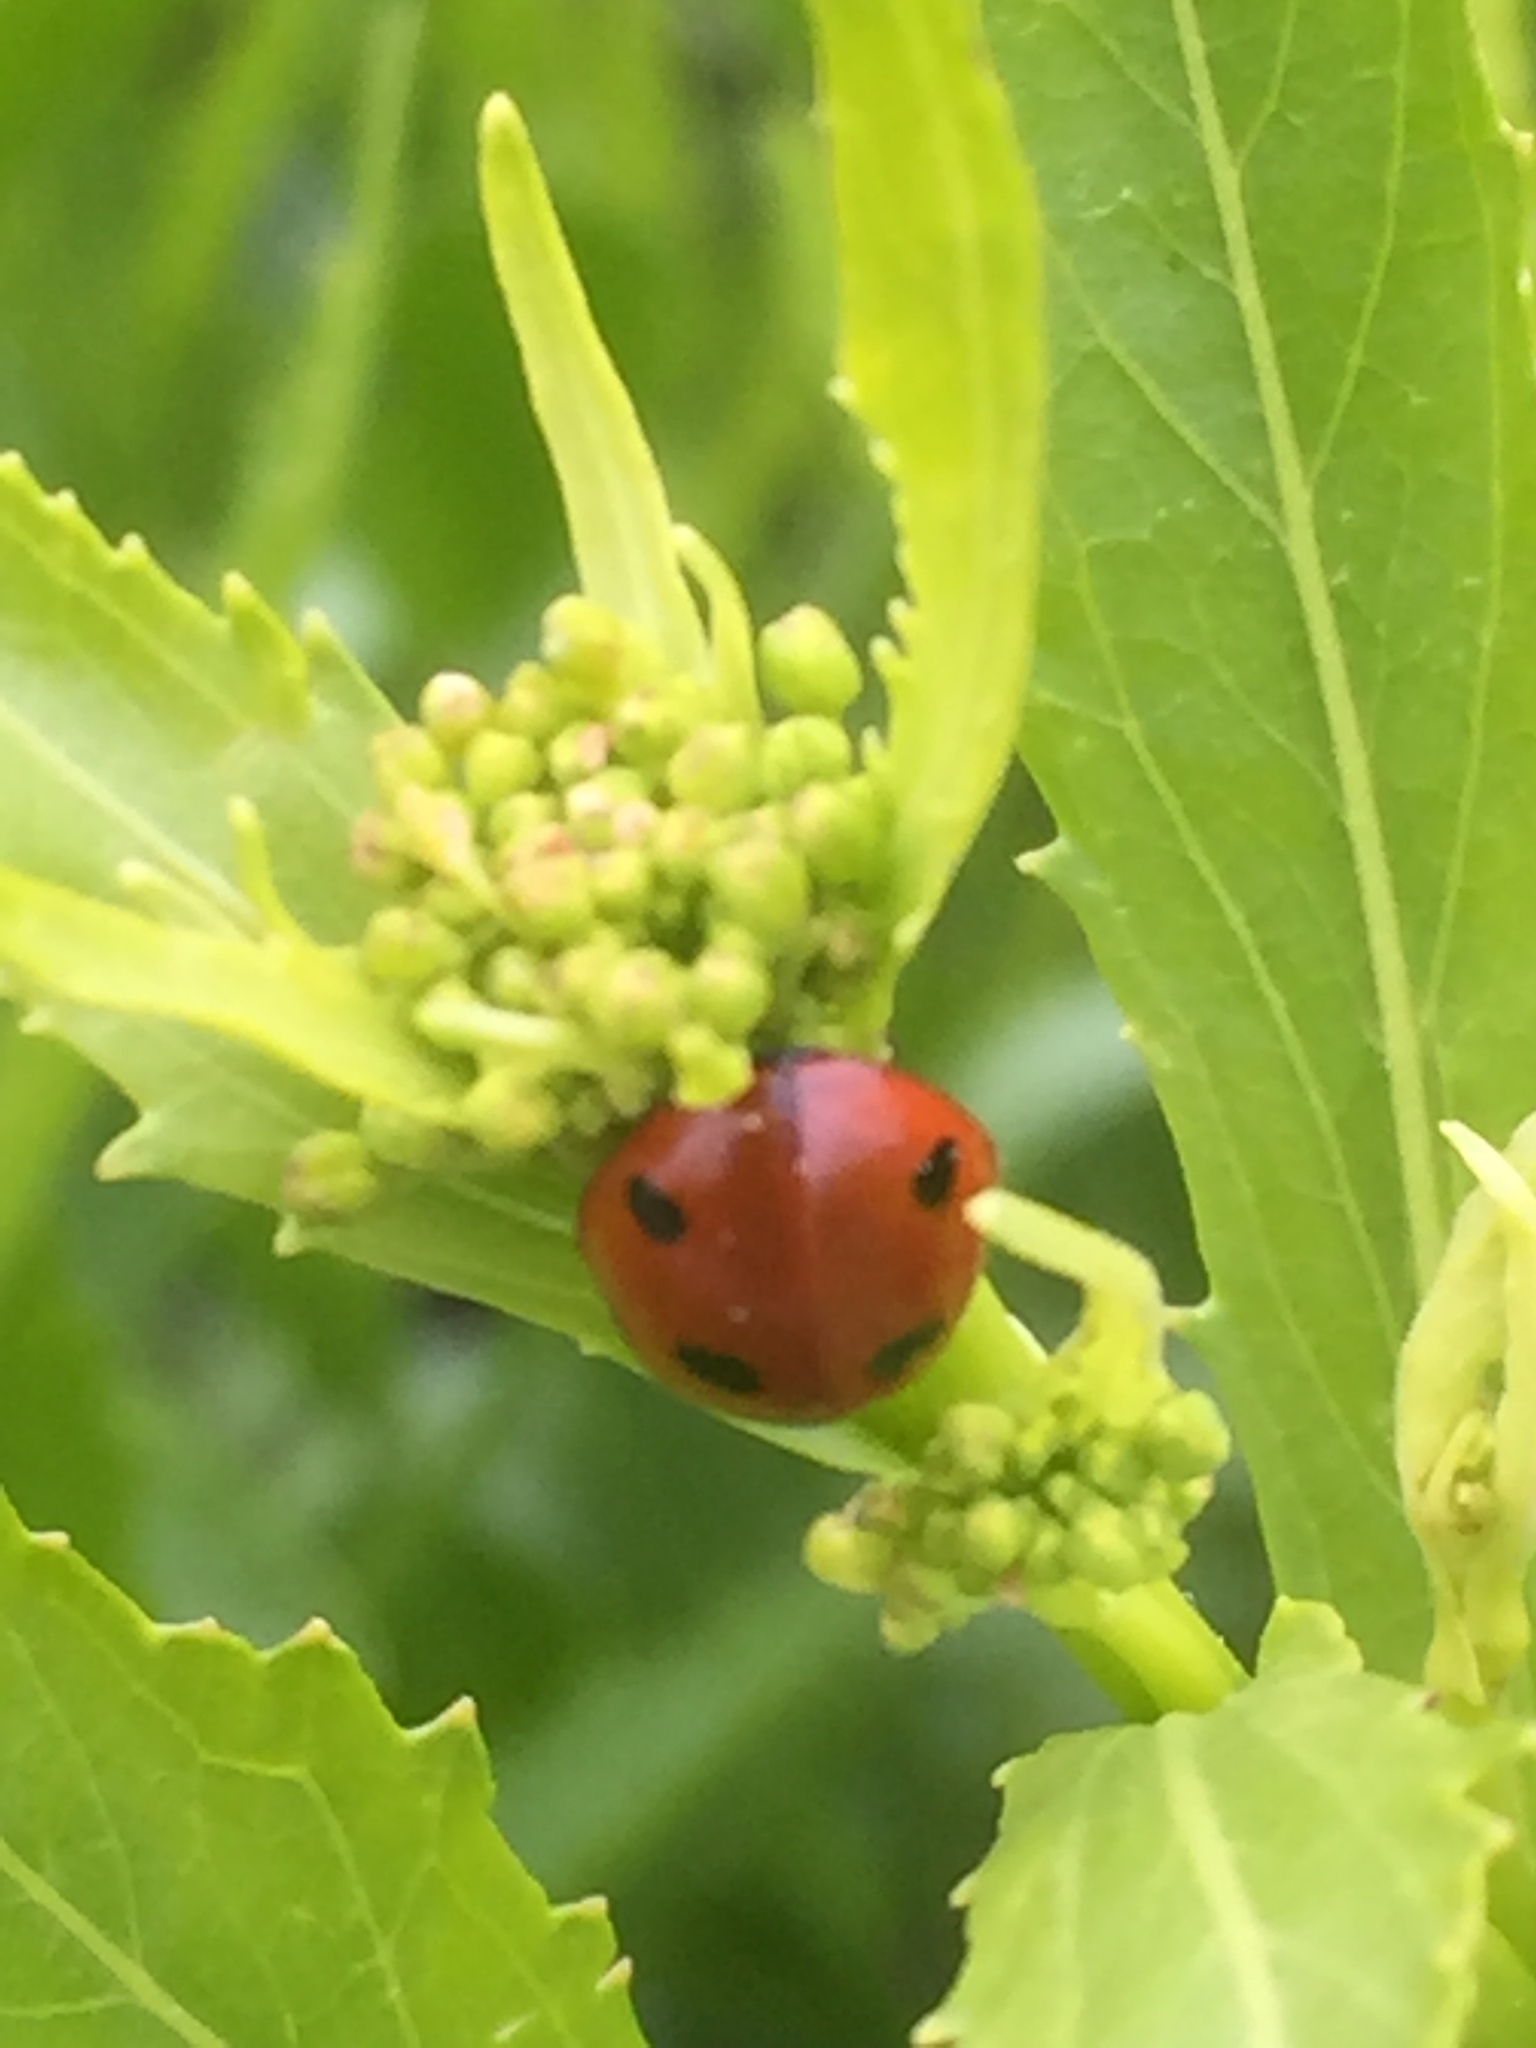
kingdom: Animalia
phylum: Arthropoda
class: Insecta
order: Coleoptera
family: Coccinellidae
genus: Coccinella
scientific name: Coccinella septempunctata
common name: Sevenspotted lady beetle
